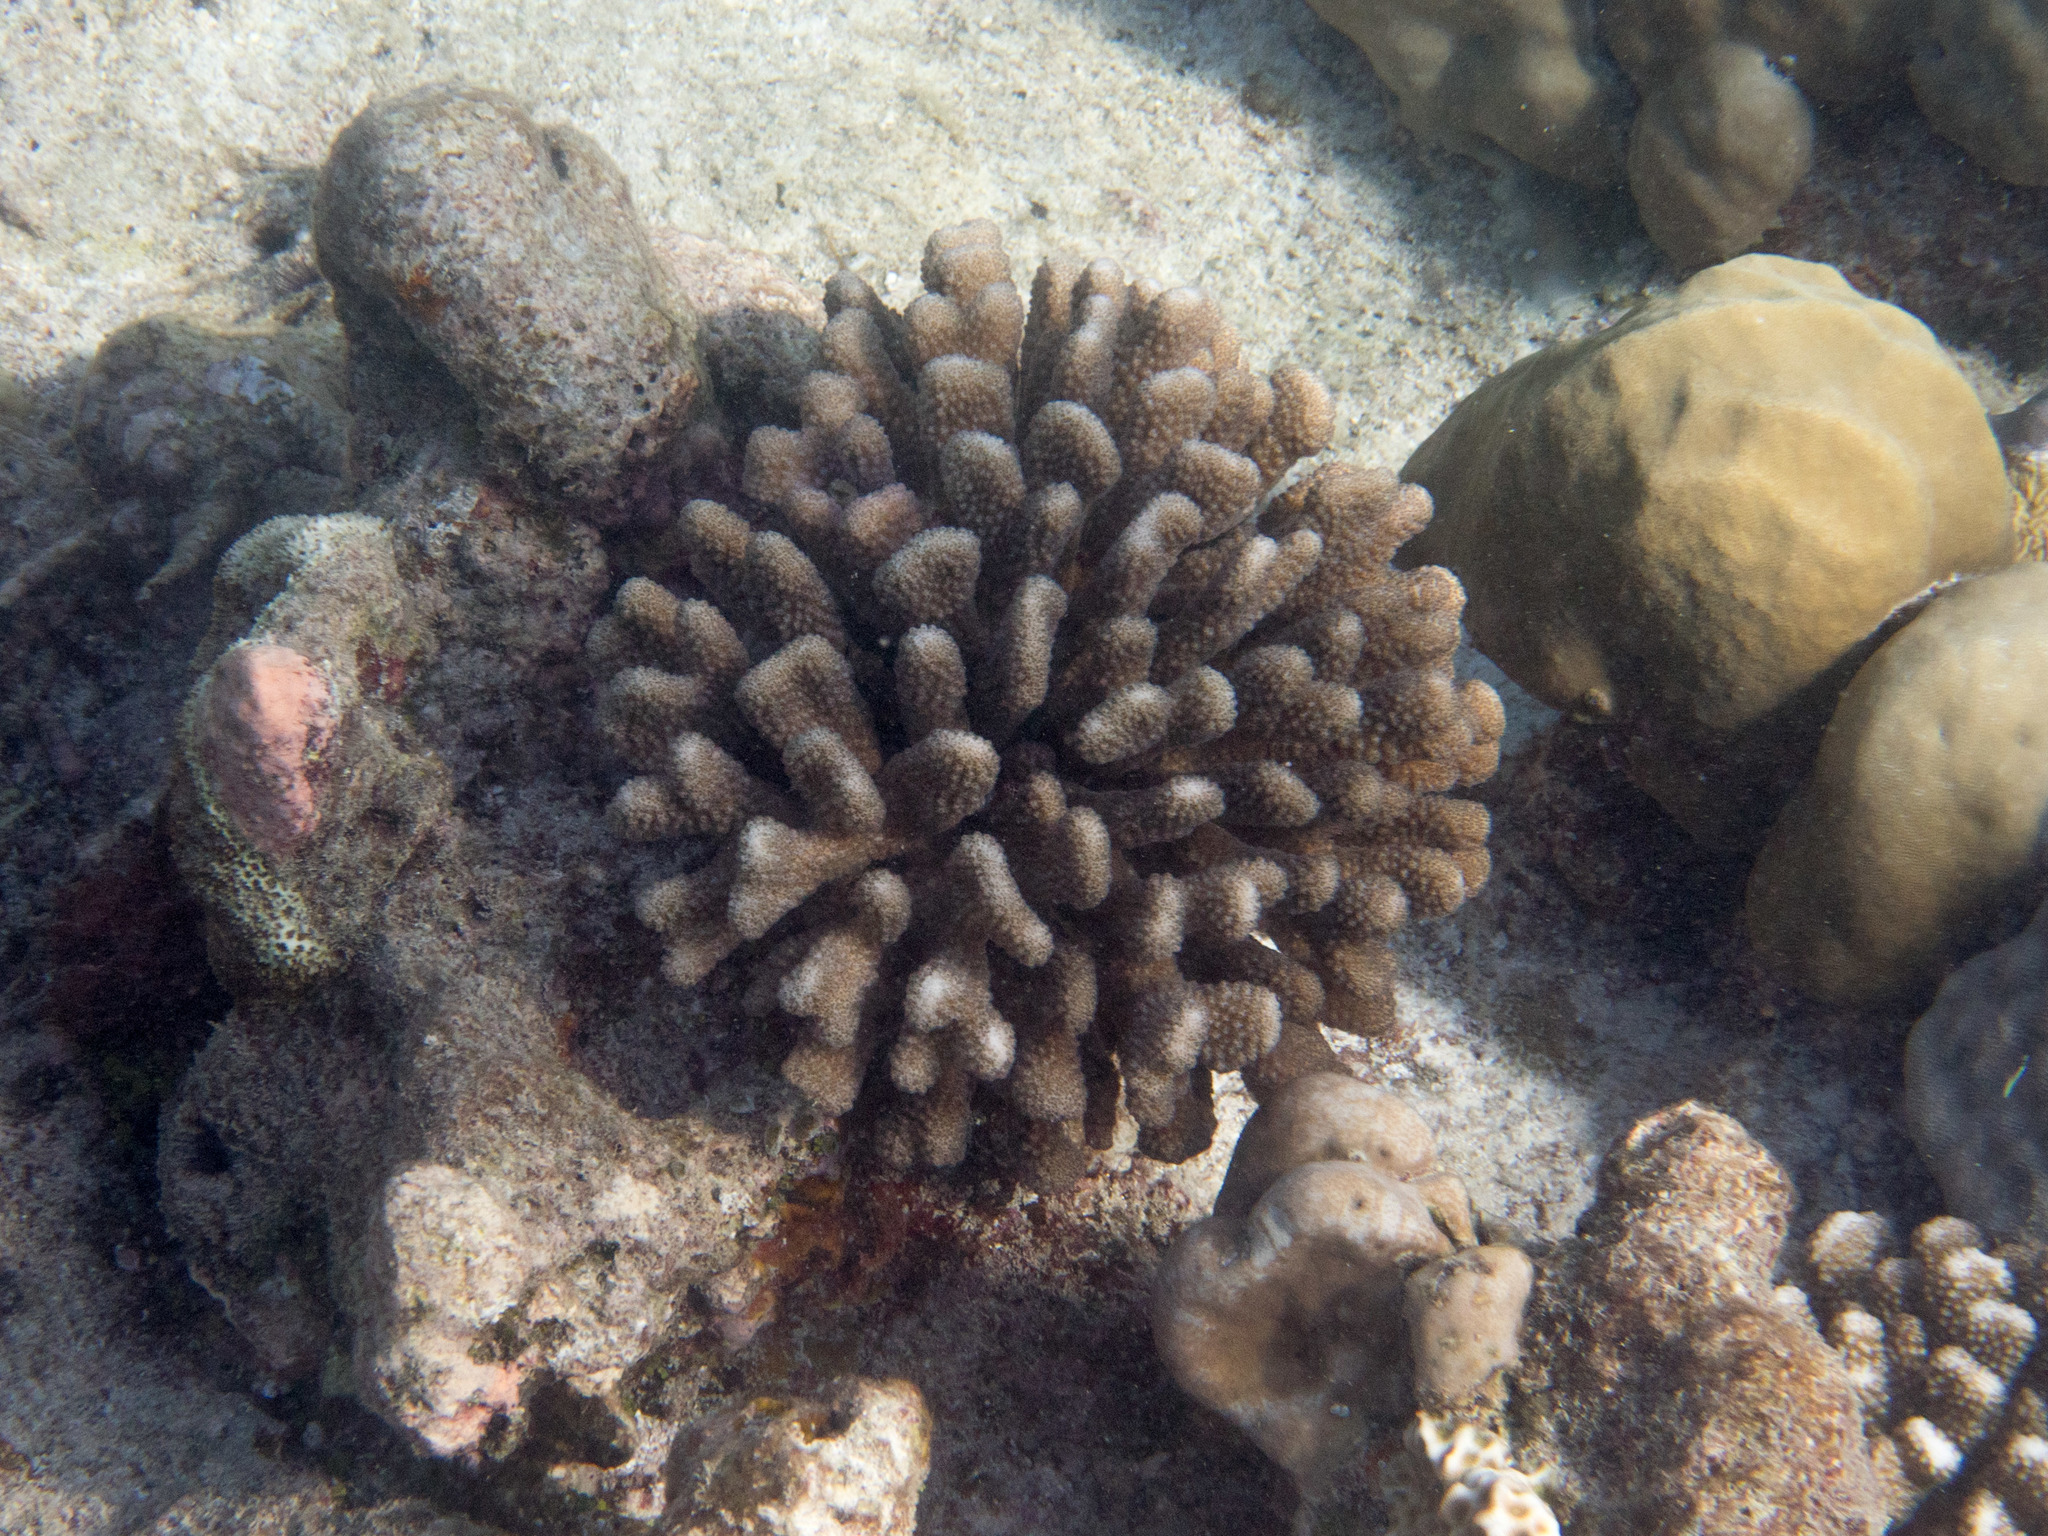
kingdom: Animalia
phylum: Cnidaria
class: Anthozoa
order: Scleractinia
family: Pocilloporidae
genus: Pocillopora
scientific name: Pocillopora verrucosa
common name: Cauliflower coral
